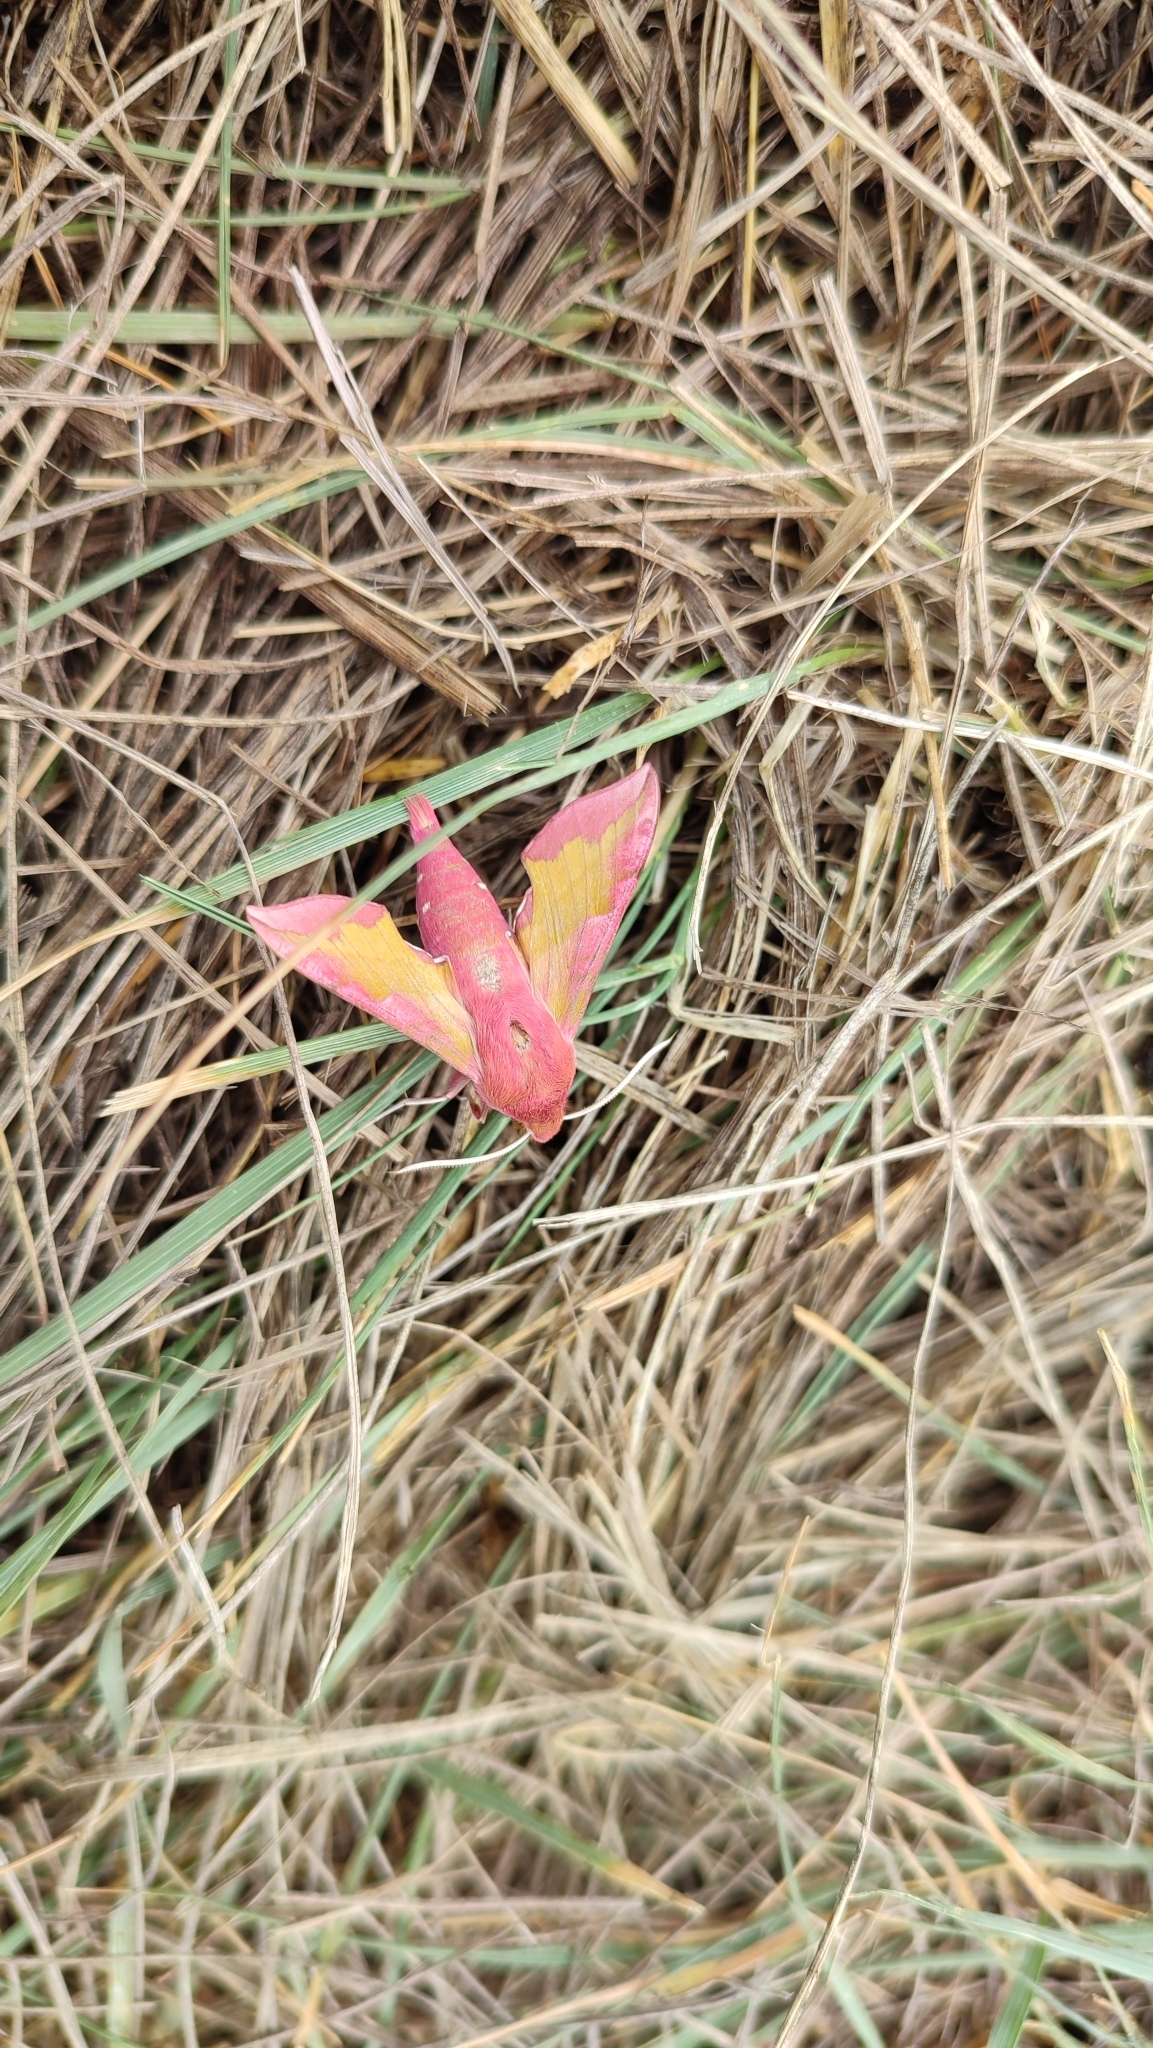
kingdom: Animalia
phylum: Arthropoda
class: Insecta
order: Lepidoptera
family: Sphingidae
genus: Deilephila
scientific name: Deilephila porcellus
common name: Small elephant hawk-moth
